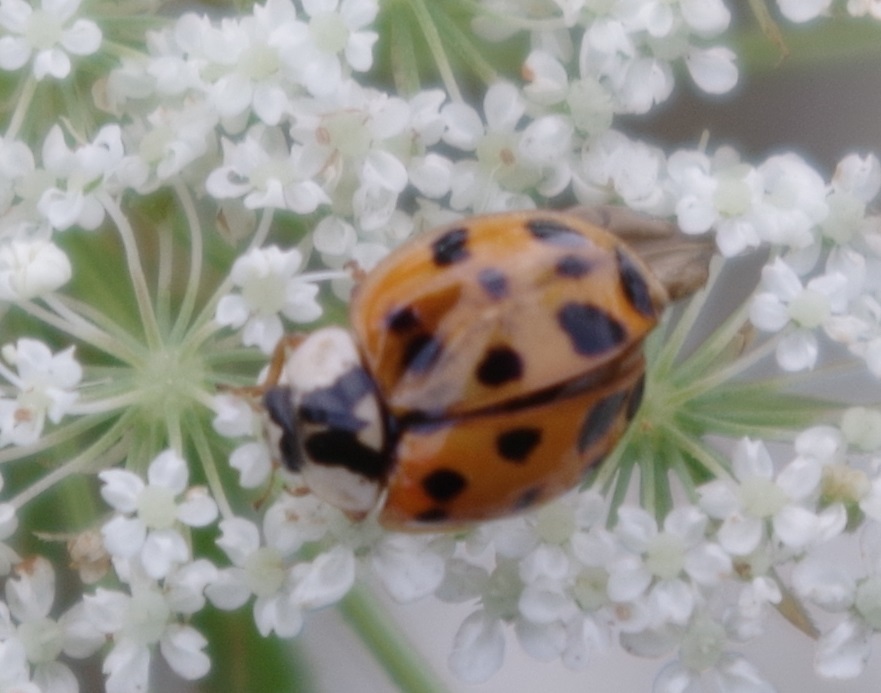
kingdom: Animalia
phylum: Arthropoda
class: Insecta
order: Coleoptera
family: Coccinellidae
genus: Harmonia
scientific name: Harmonia axyridis
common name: Harlequin ladybird
